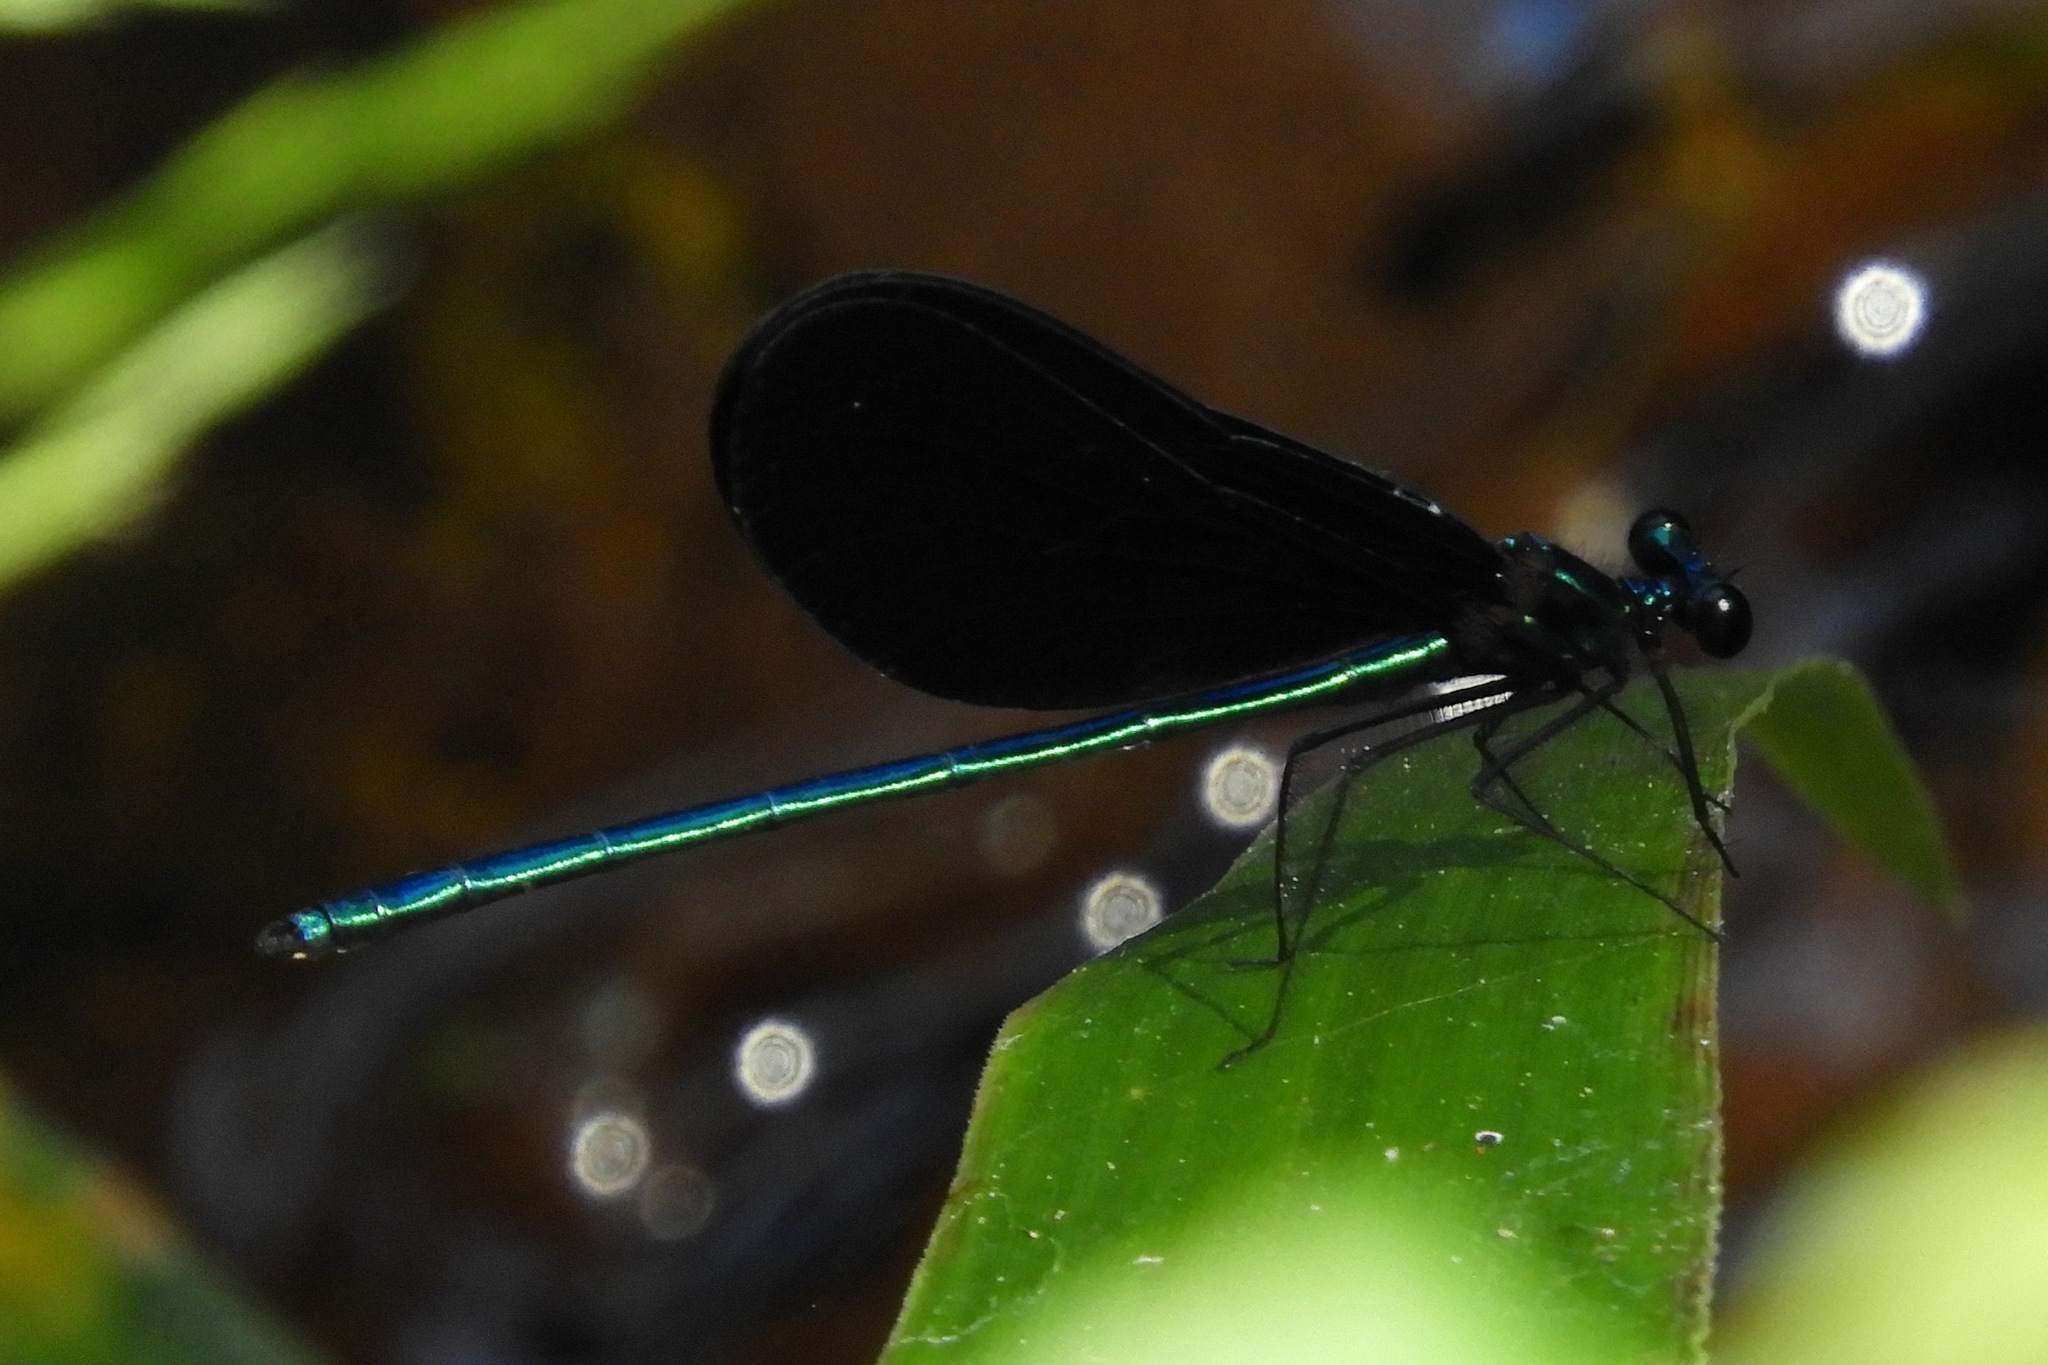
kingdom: Animalia
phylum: Arthropoda
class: Insecta
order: Odonata
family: Calopterygidae
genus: Calopteryx
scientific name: Calopteryx maculata
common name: Ebony jewelwing
